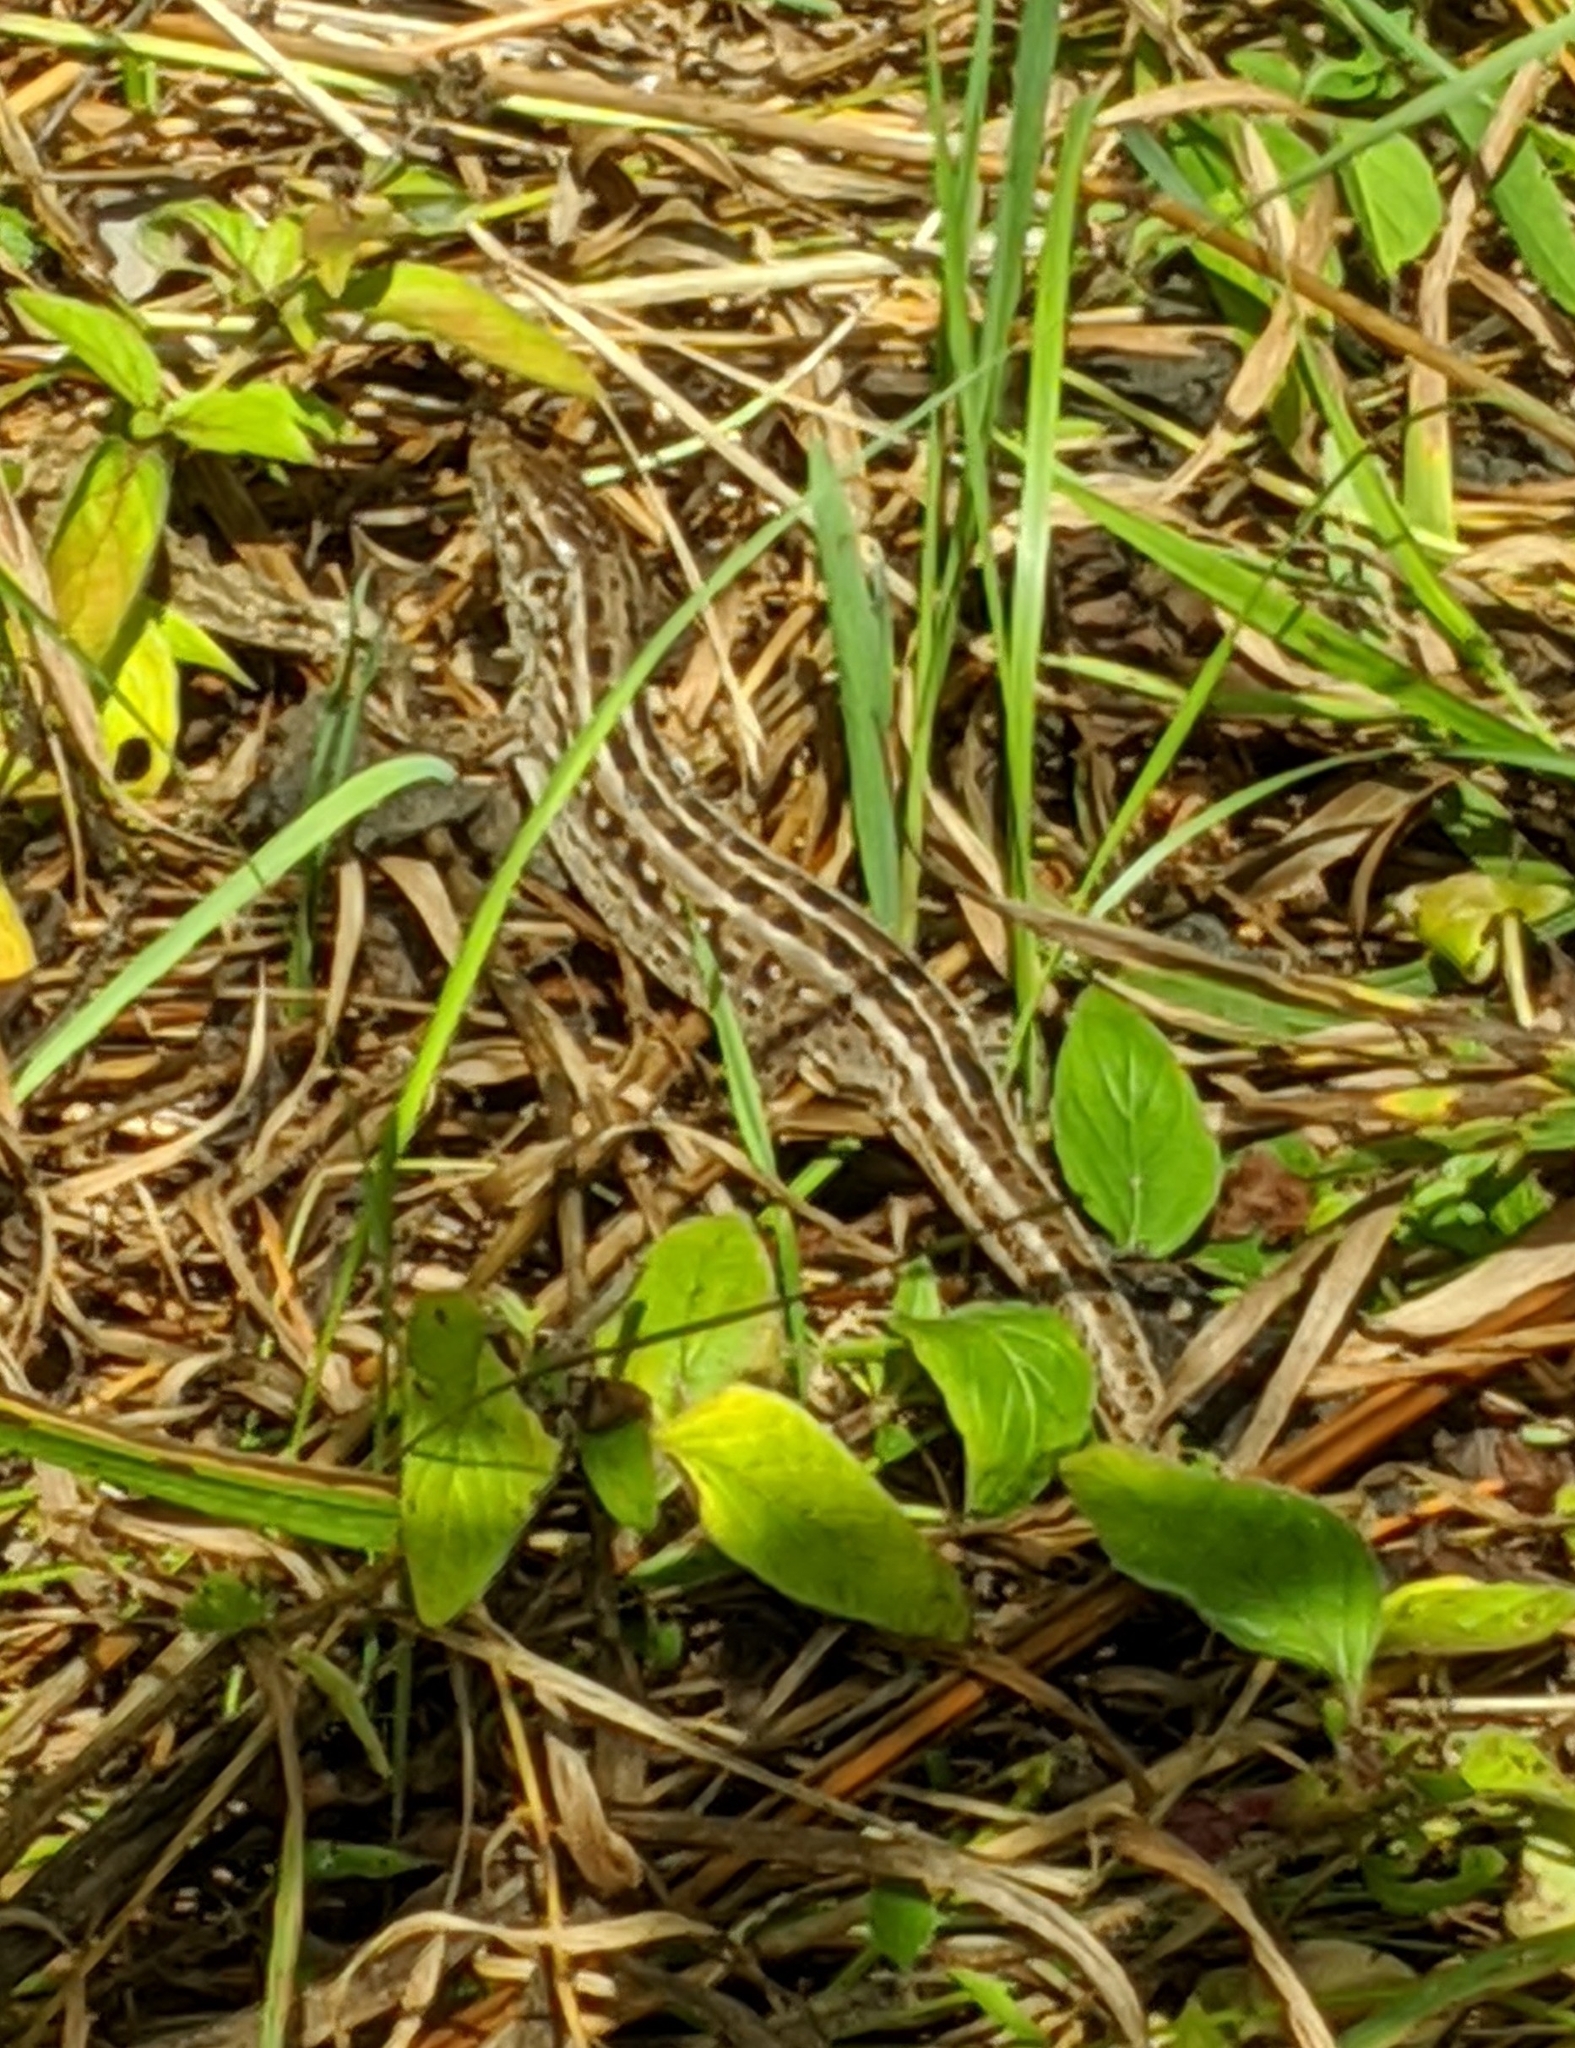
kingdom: Animalia
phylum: Chordata
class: Squamata
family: Lacertidae
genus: Lacerta
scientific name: Lacerta agilis
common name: Sand lizard
